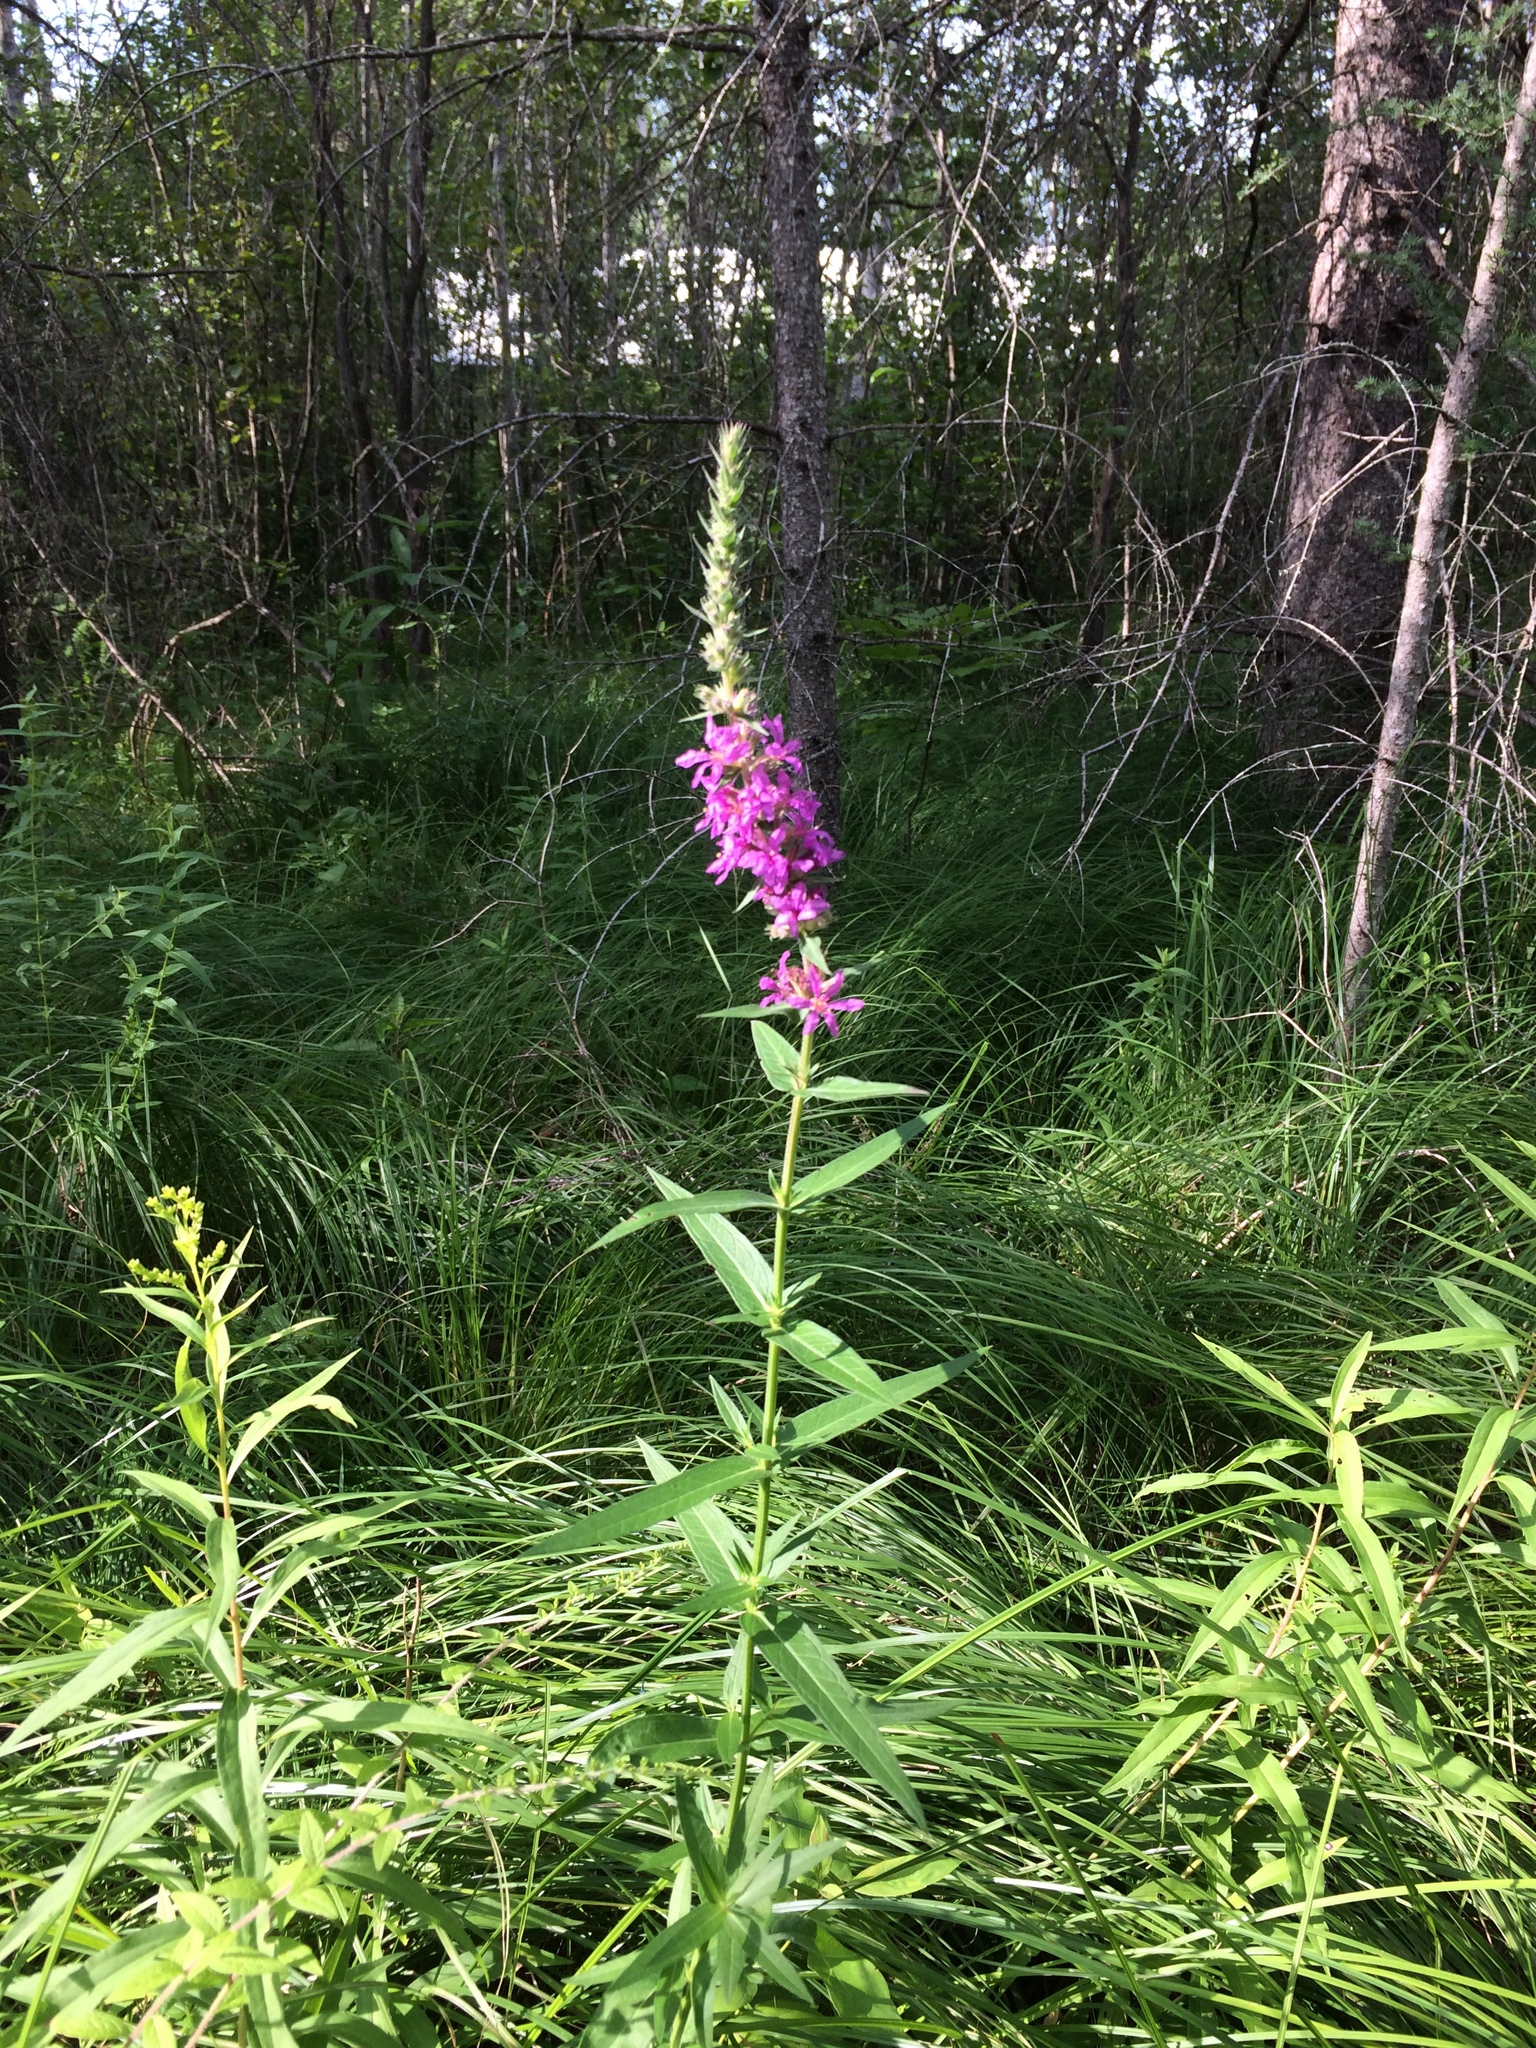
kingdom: Plantae
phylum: Tracheophyta
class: Magnoliopsida
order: Myrtales
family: Lythraceae
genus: Lythrum
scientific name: Lythrum salicaria
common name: Purple loosestrife
